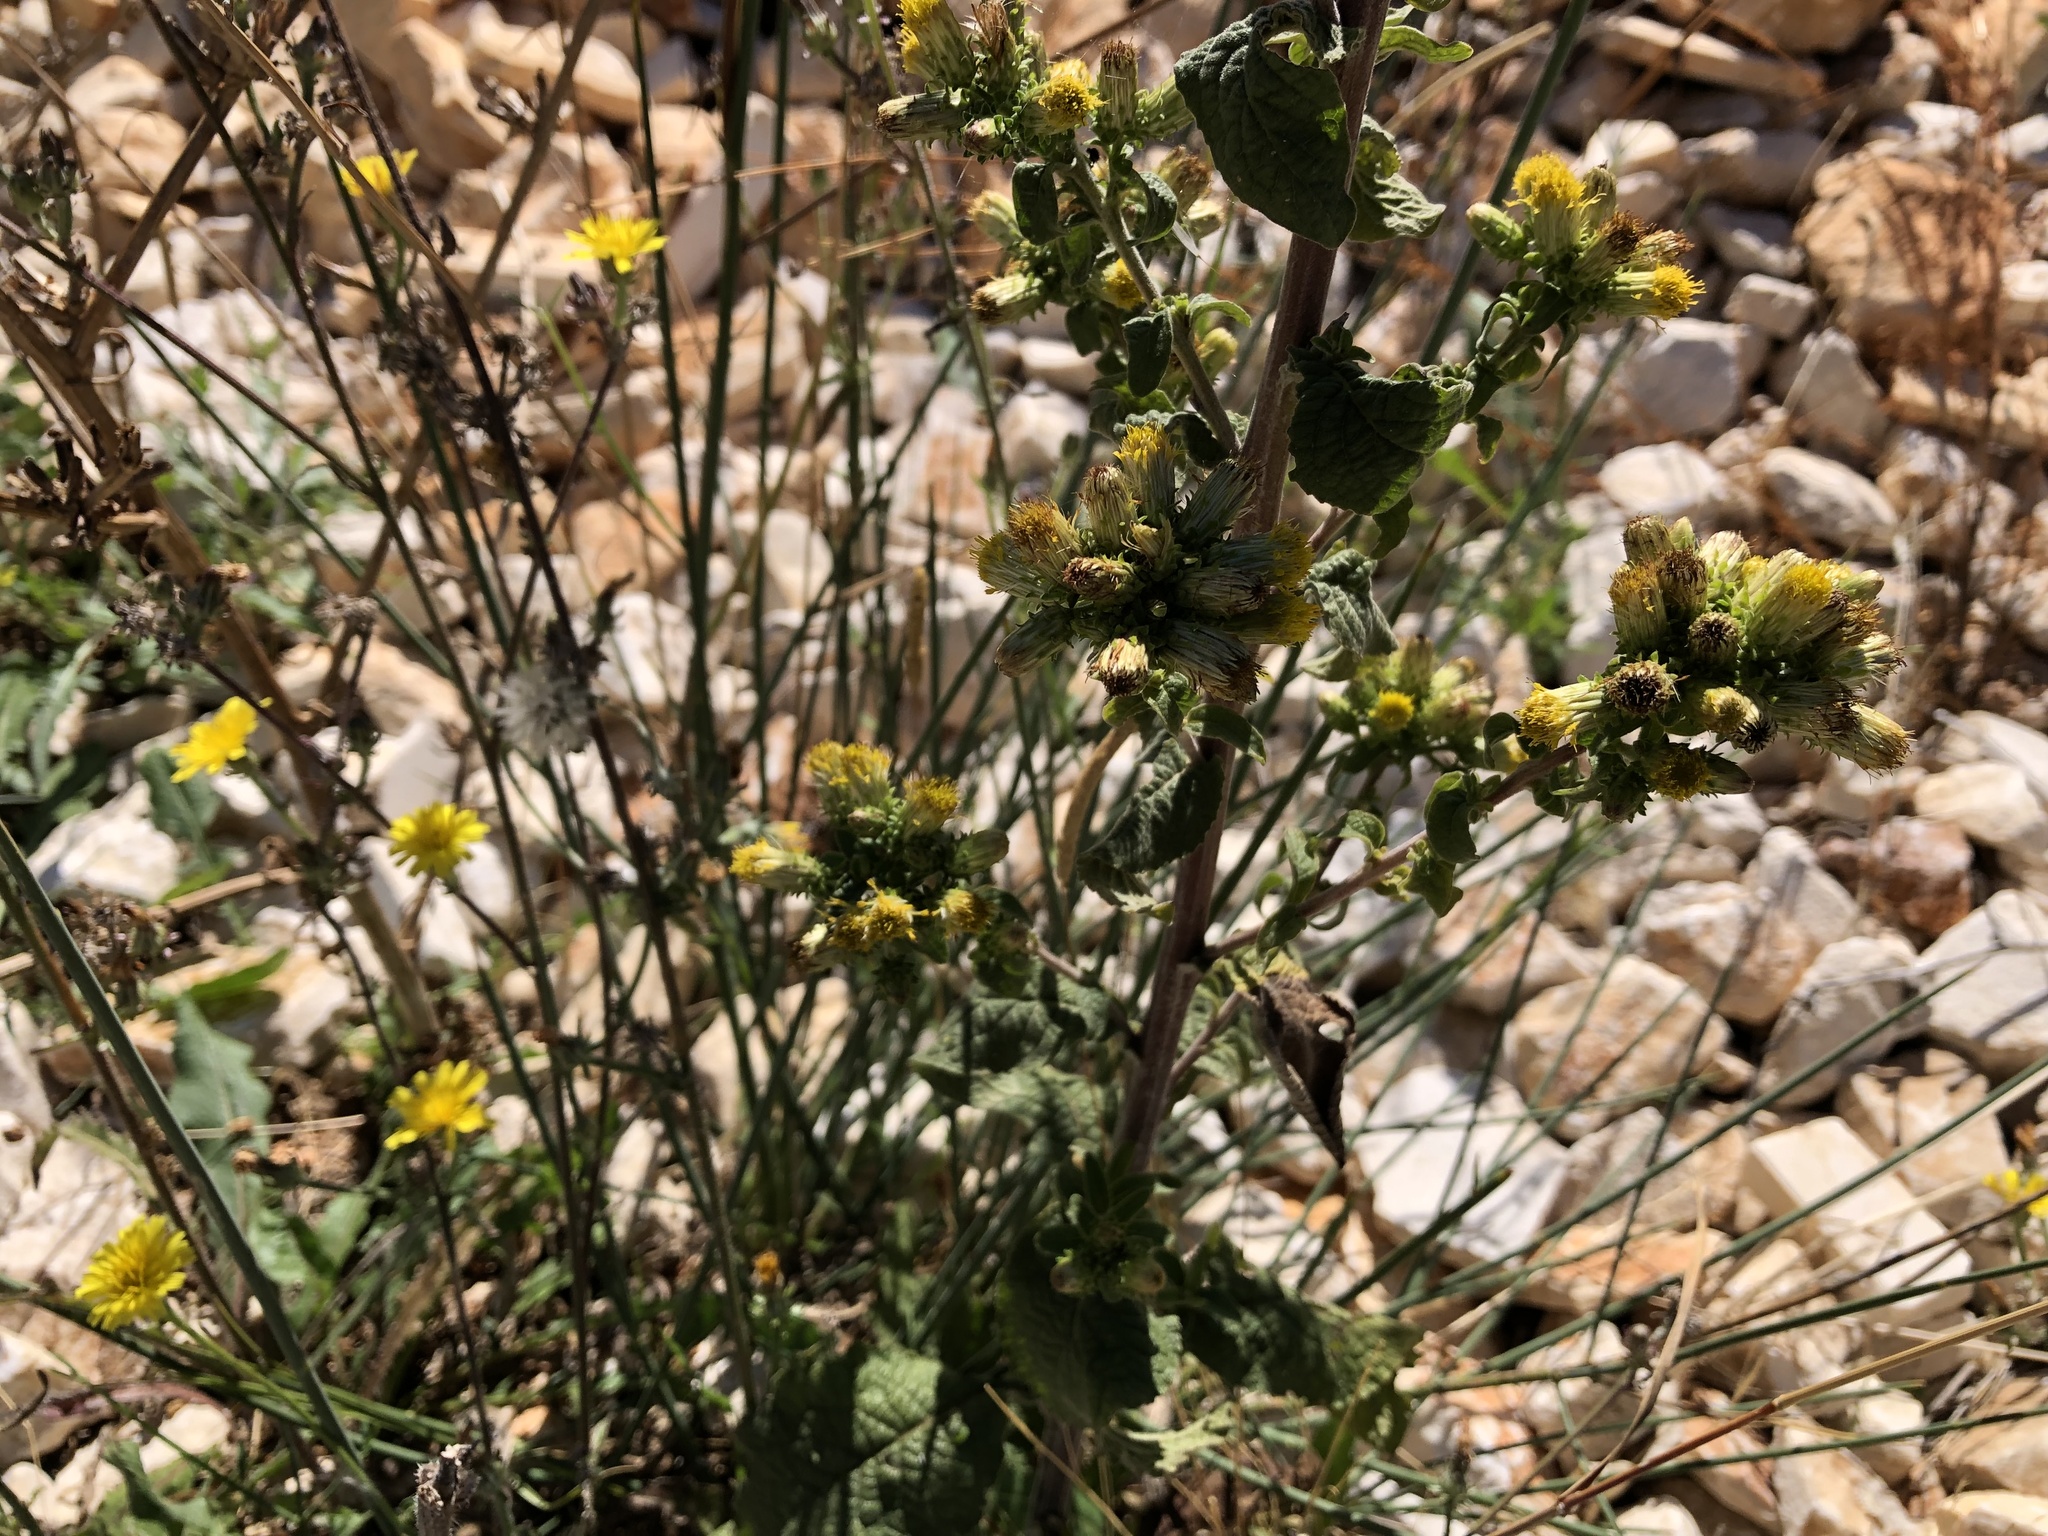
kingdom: Plantae
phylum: Tracheophyta
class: Magnoliopsida
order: Asterales
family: Asteraceae
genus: Pentanema
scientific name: Pentanema squarrosum
